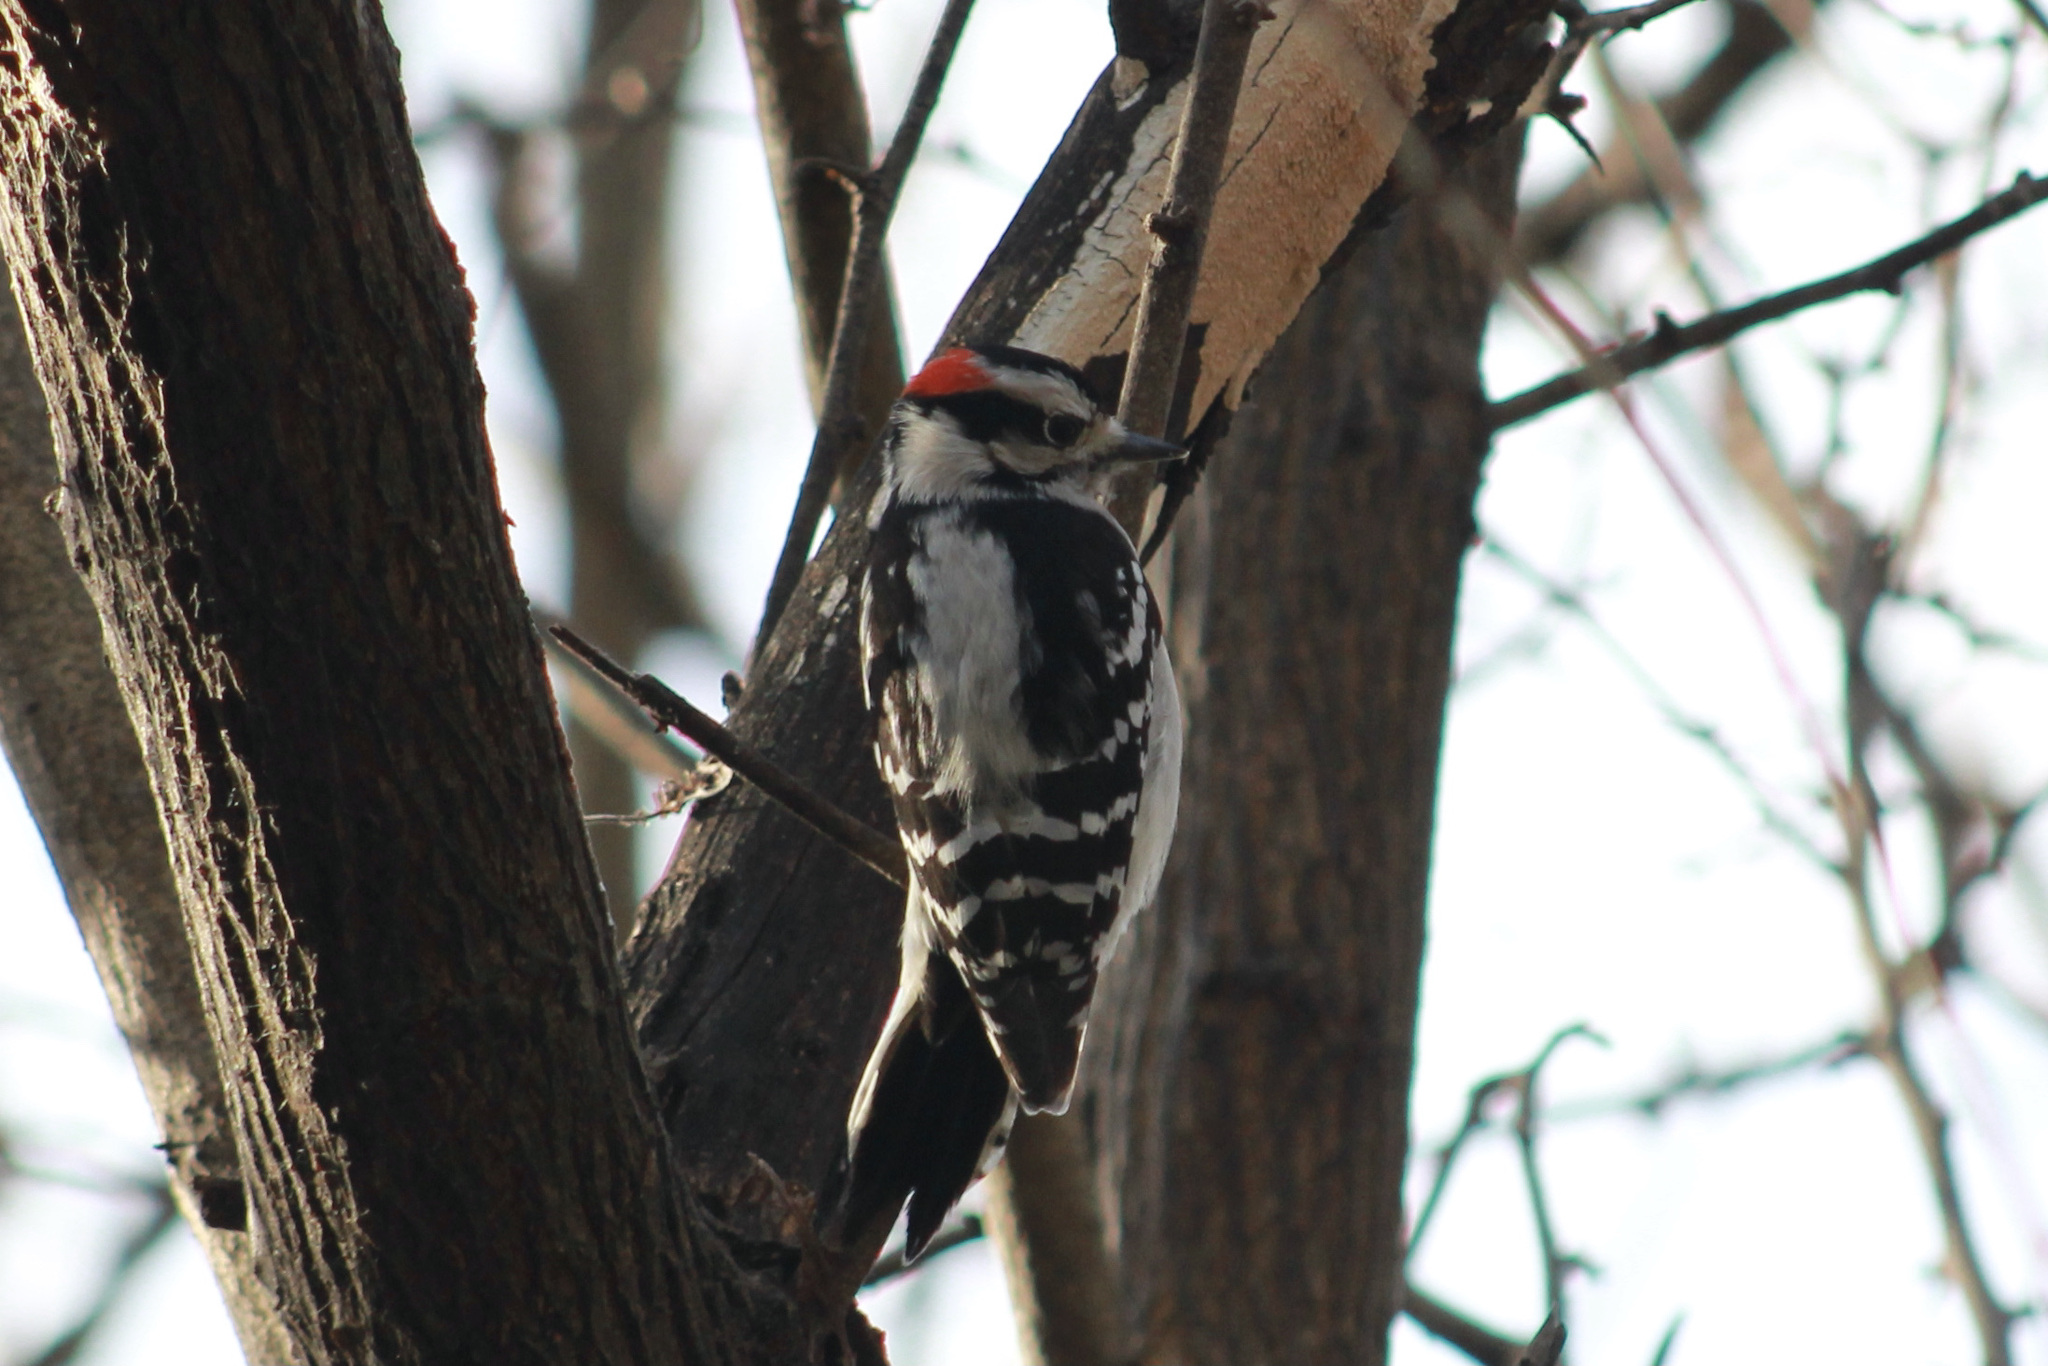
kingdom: Animalia
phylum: Chordata
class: Aves
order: Piciformes
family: Picidae
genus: Dryobates
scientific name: Dryobates pubescens
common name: Downy woodpecker
